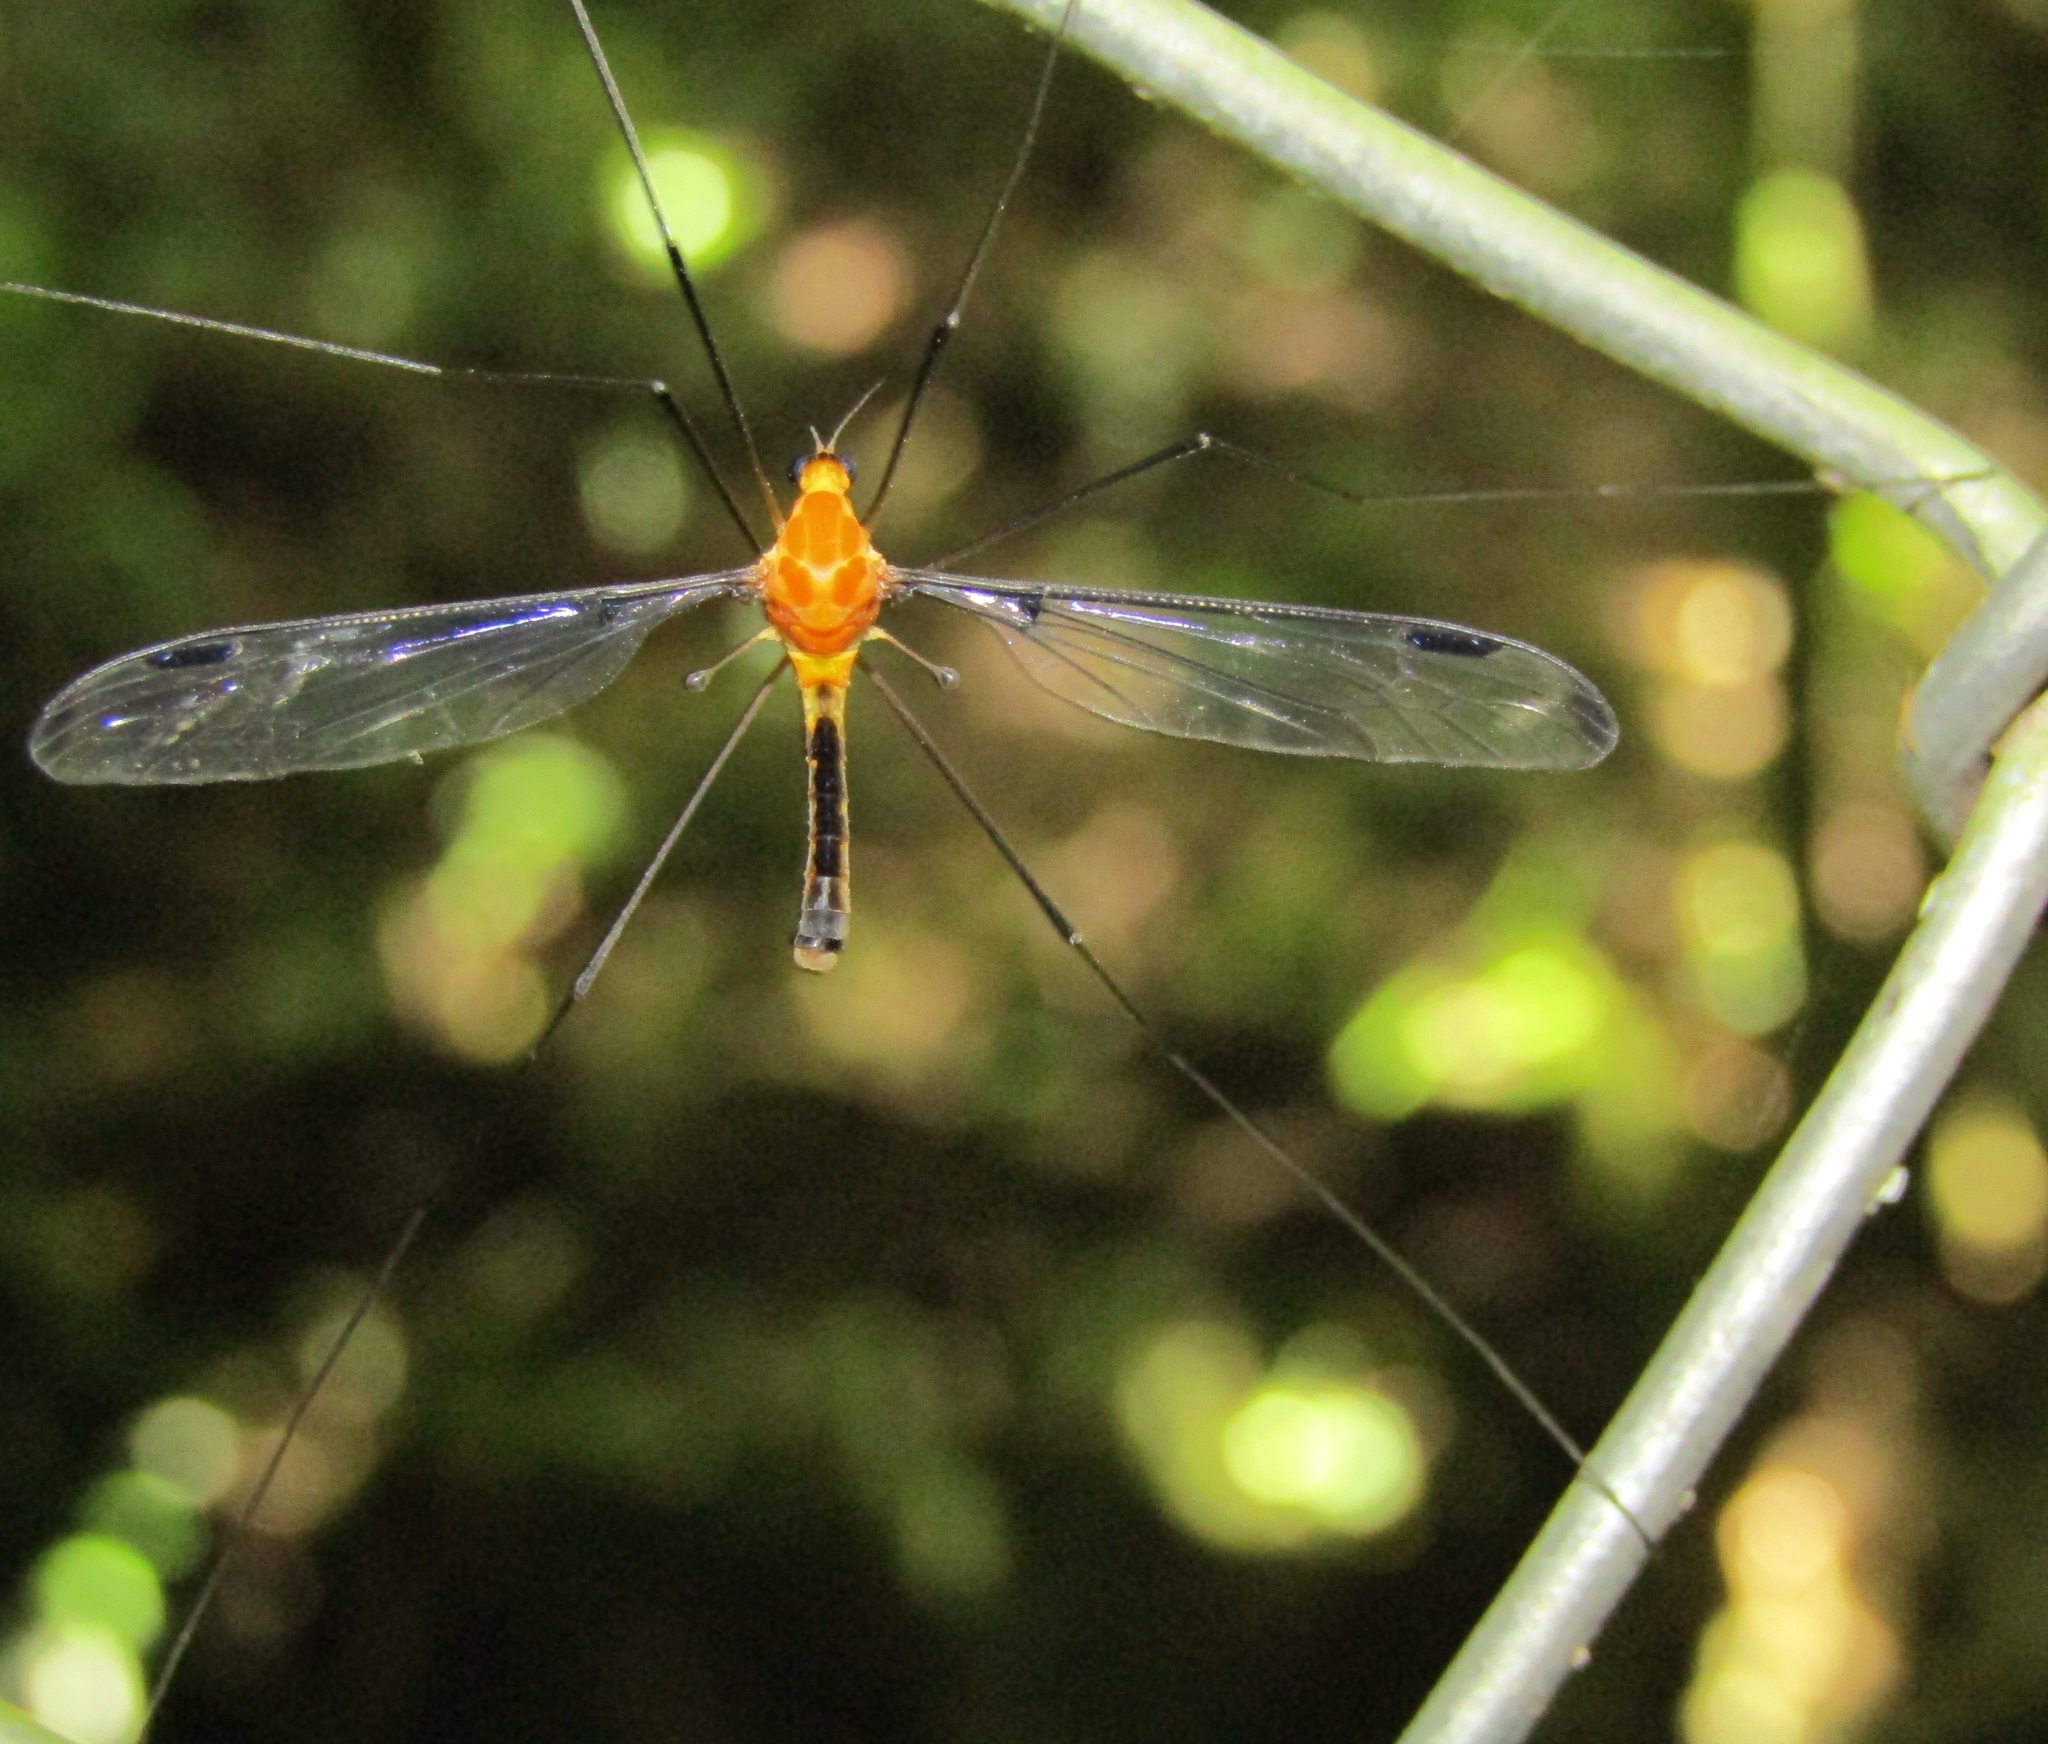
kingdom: Animalia
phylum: Arthropoda
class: Insecta
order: Diptera
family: Tipulidae
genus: Aurotipula
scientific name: Aurotipula
